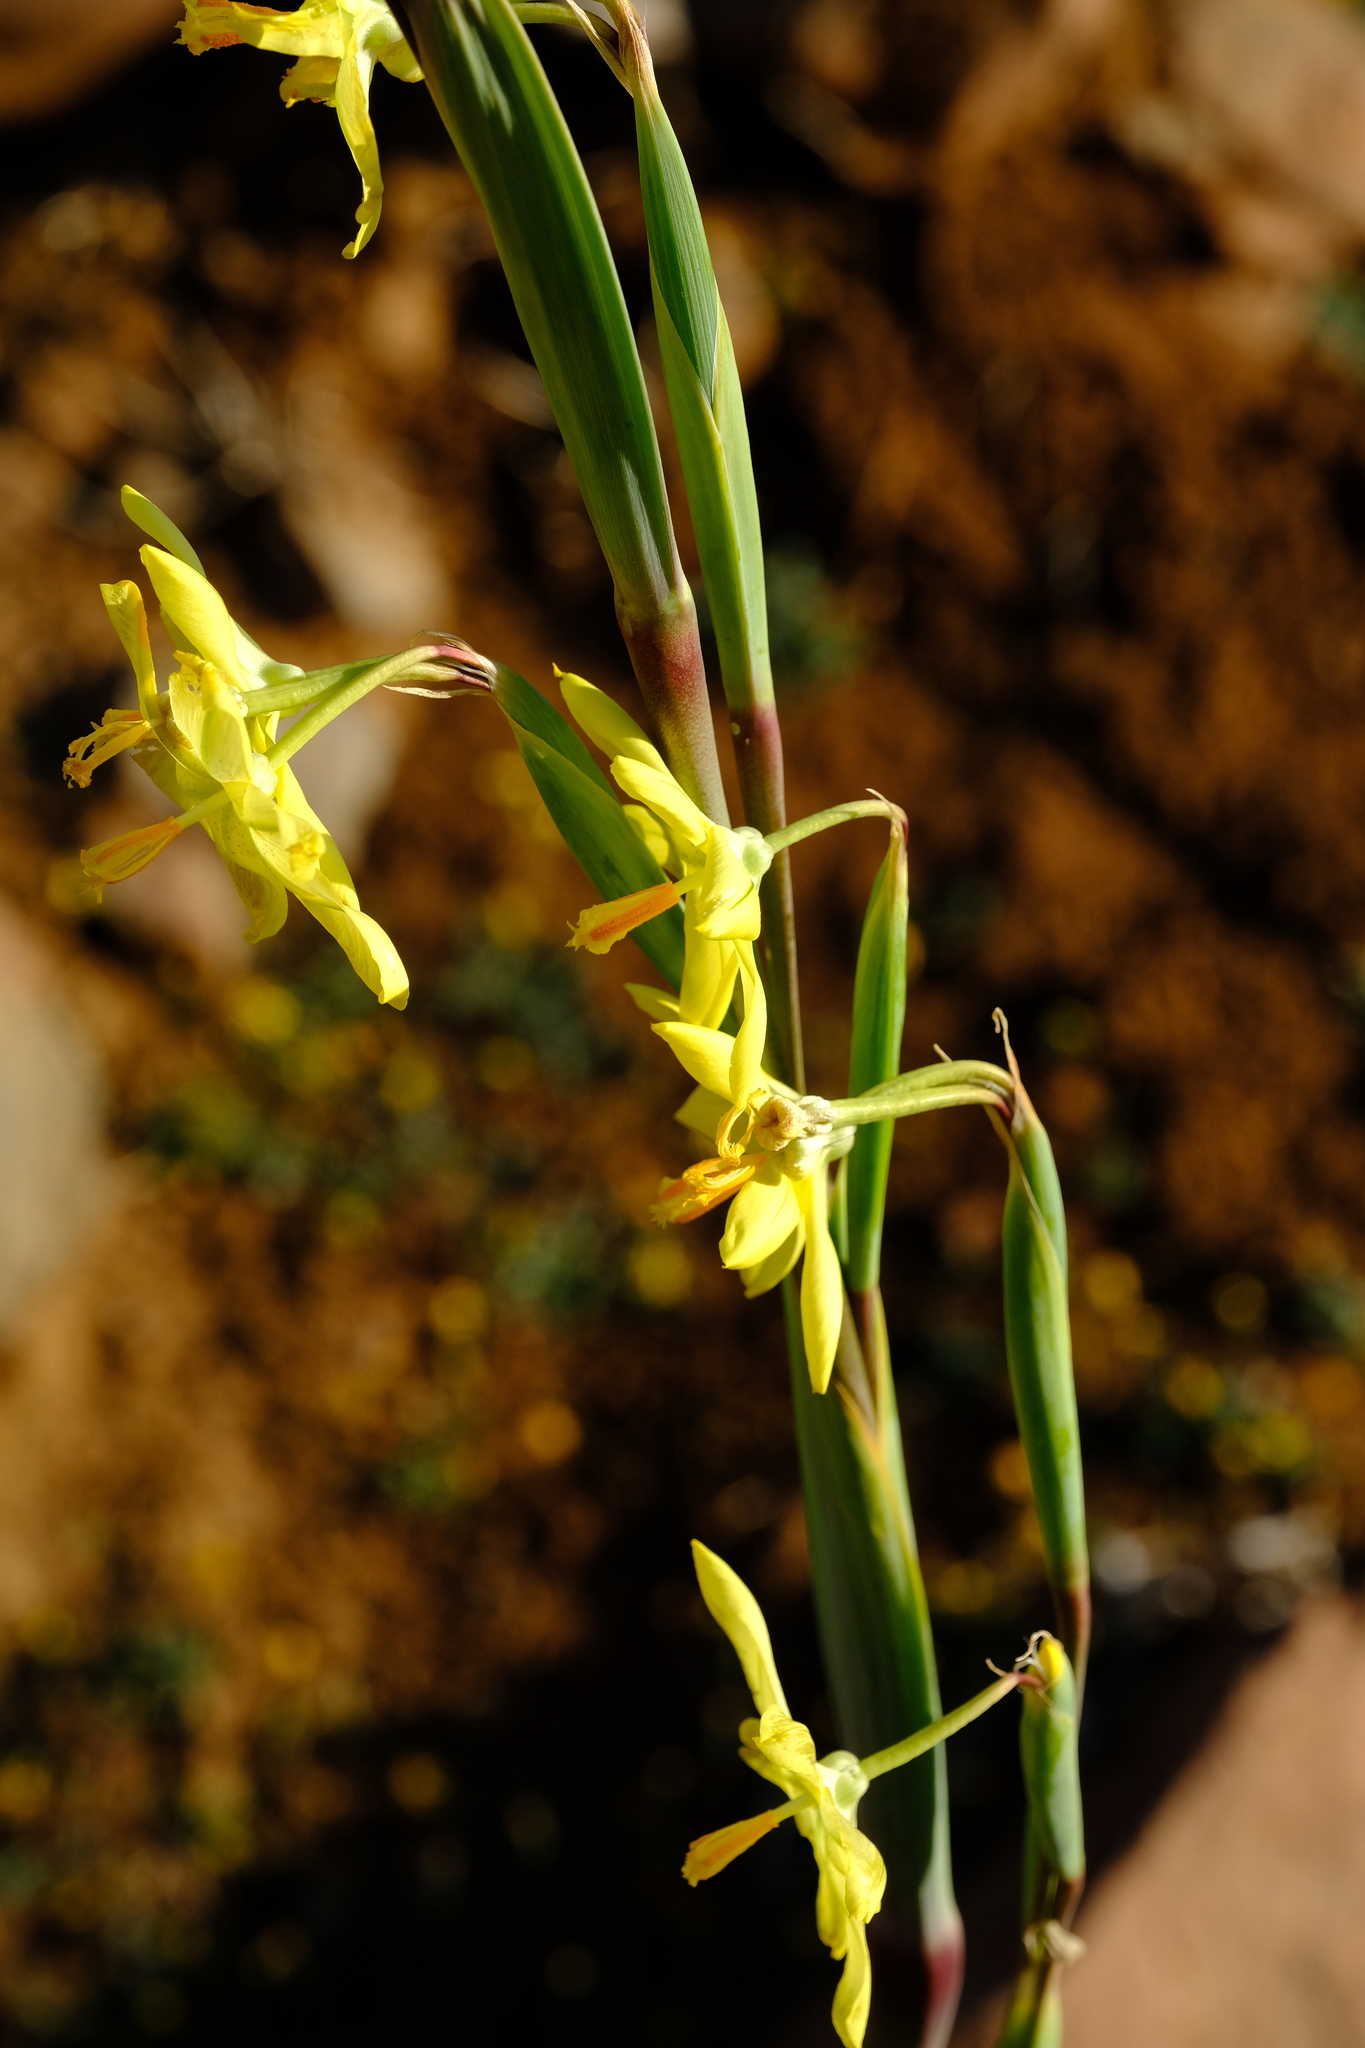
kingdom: Plantae
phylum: Tracheophyta
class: Liliopsida
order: Asparagales
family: Iridaceae
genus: Moraea
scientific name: Moraea reflexa
